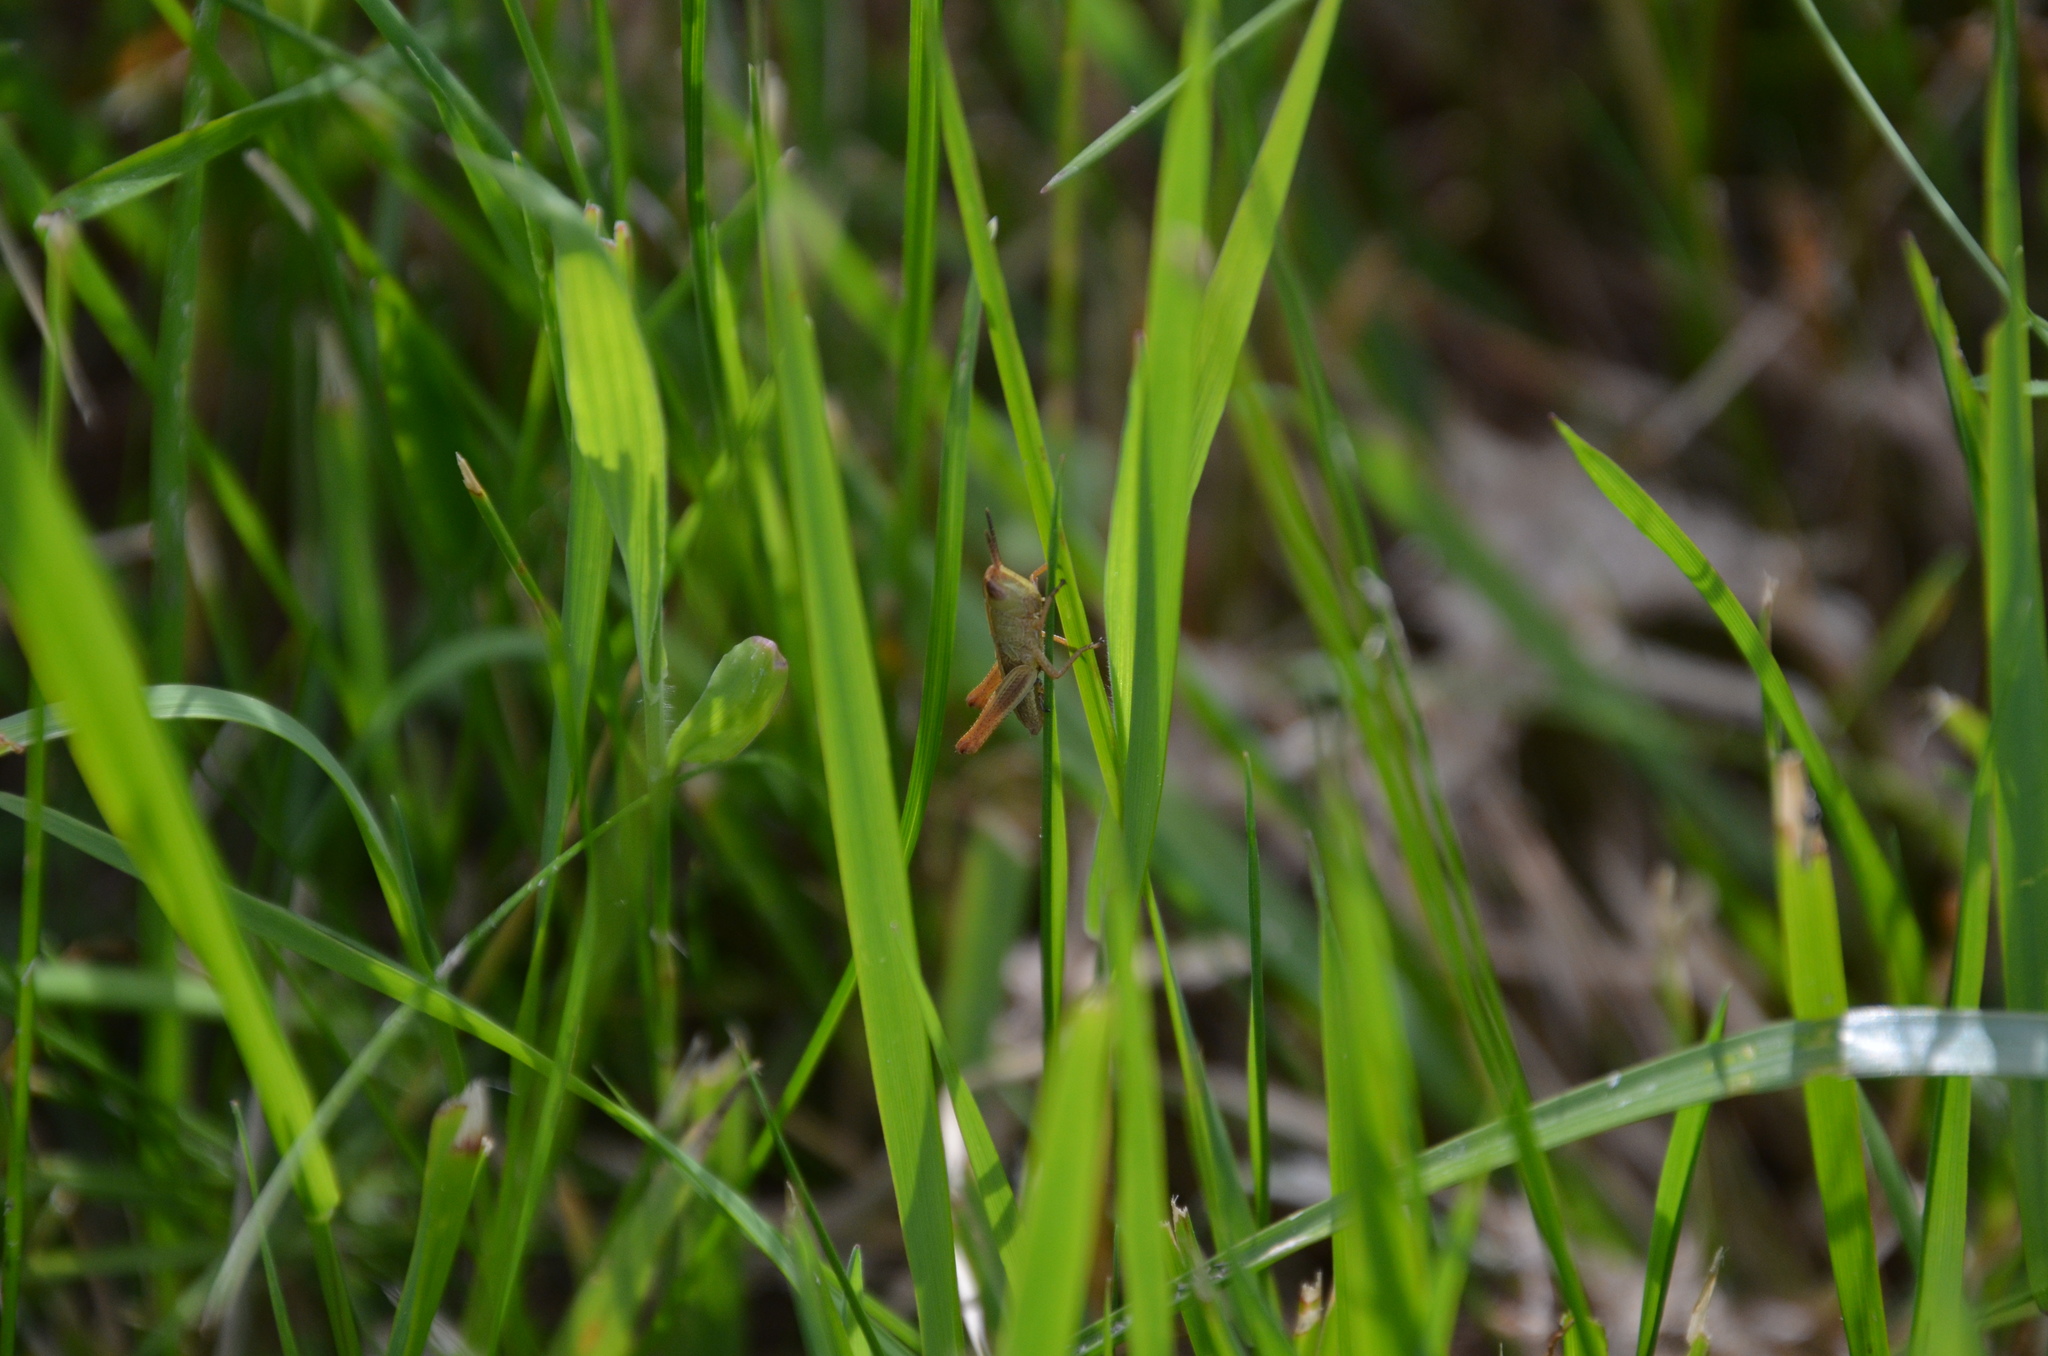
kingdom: Animalia
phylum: Arthropoda
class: Insecta
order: Orthoptera
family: Acrididae
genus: Pseudochorthippus
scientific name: Pseudochorthippus parallelus
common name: Meadow grasshopper
